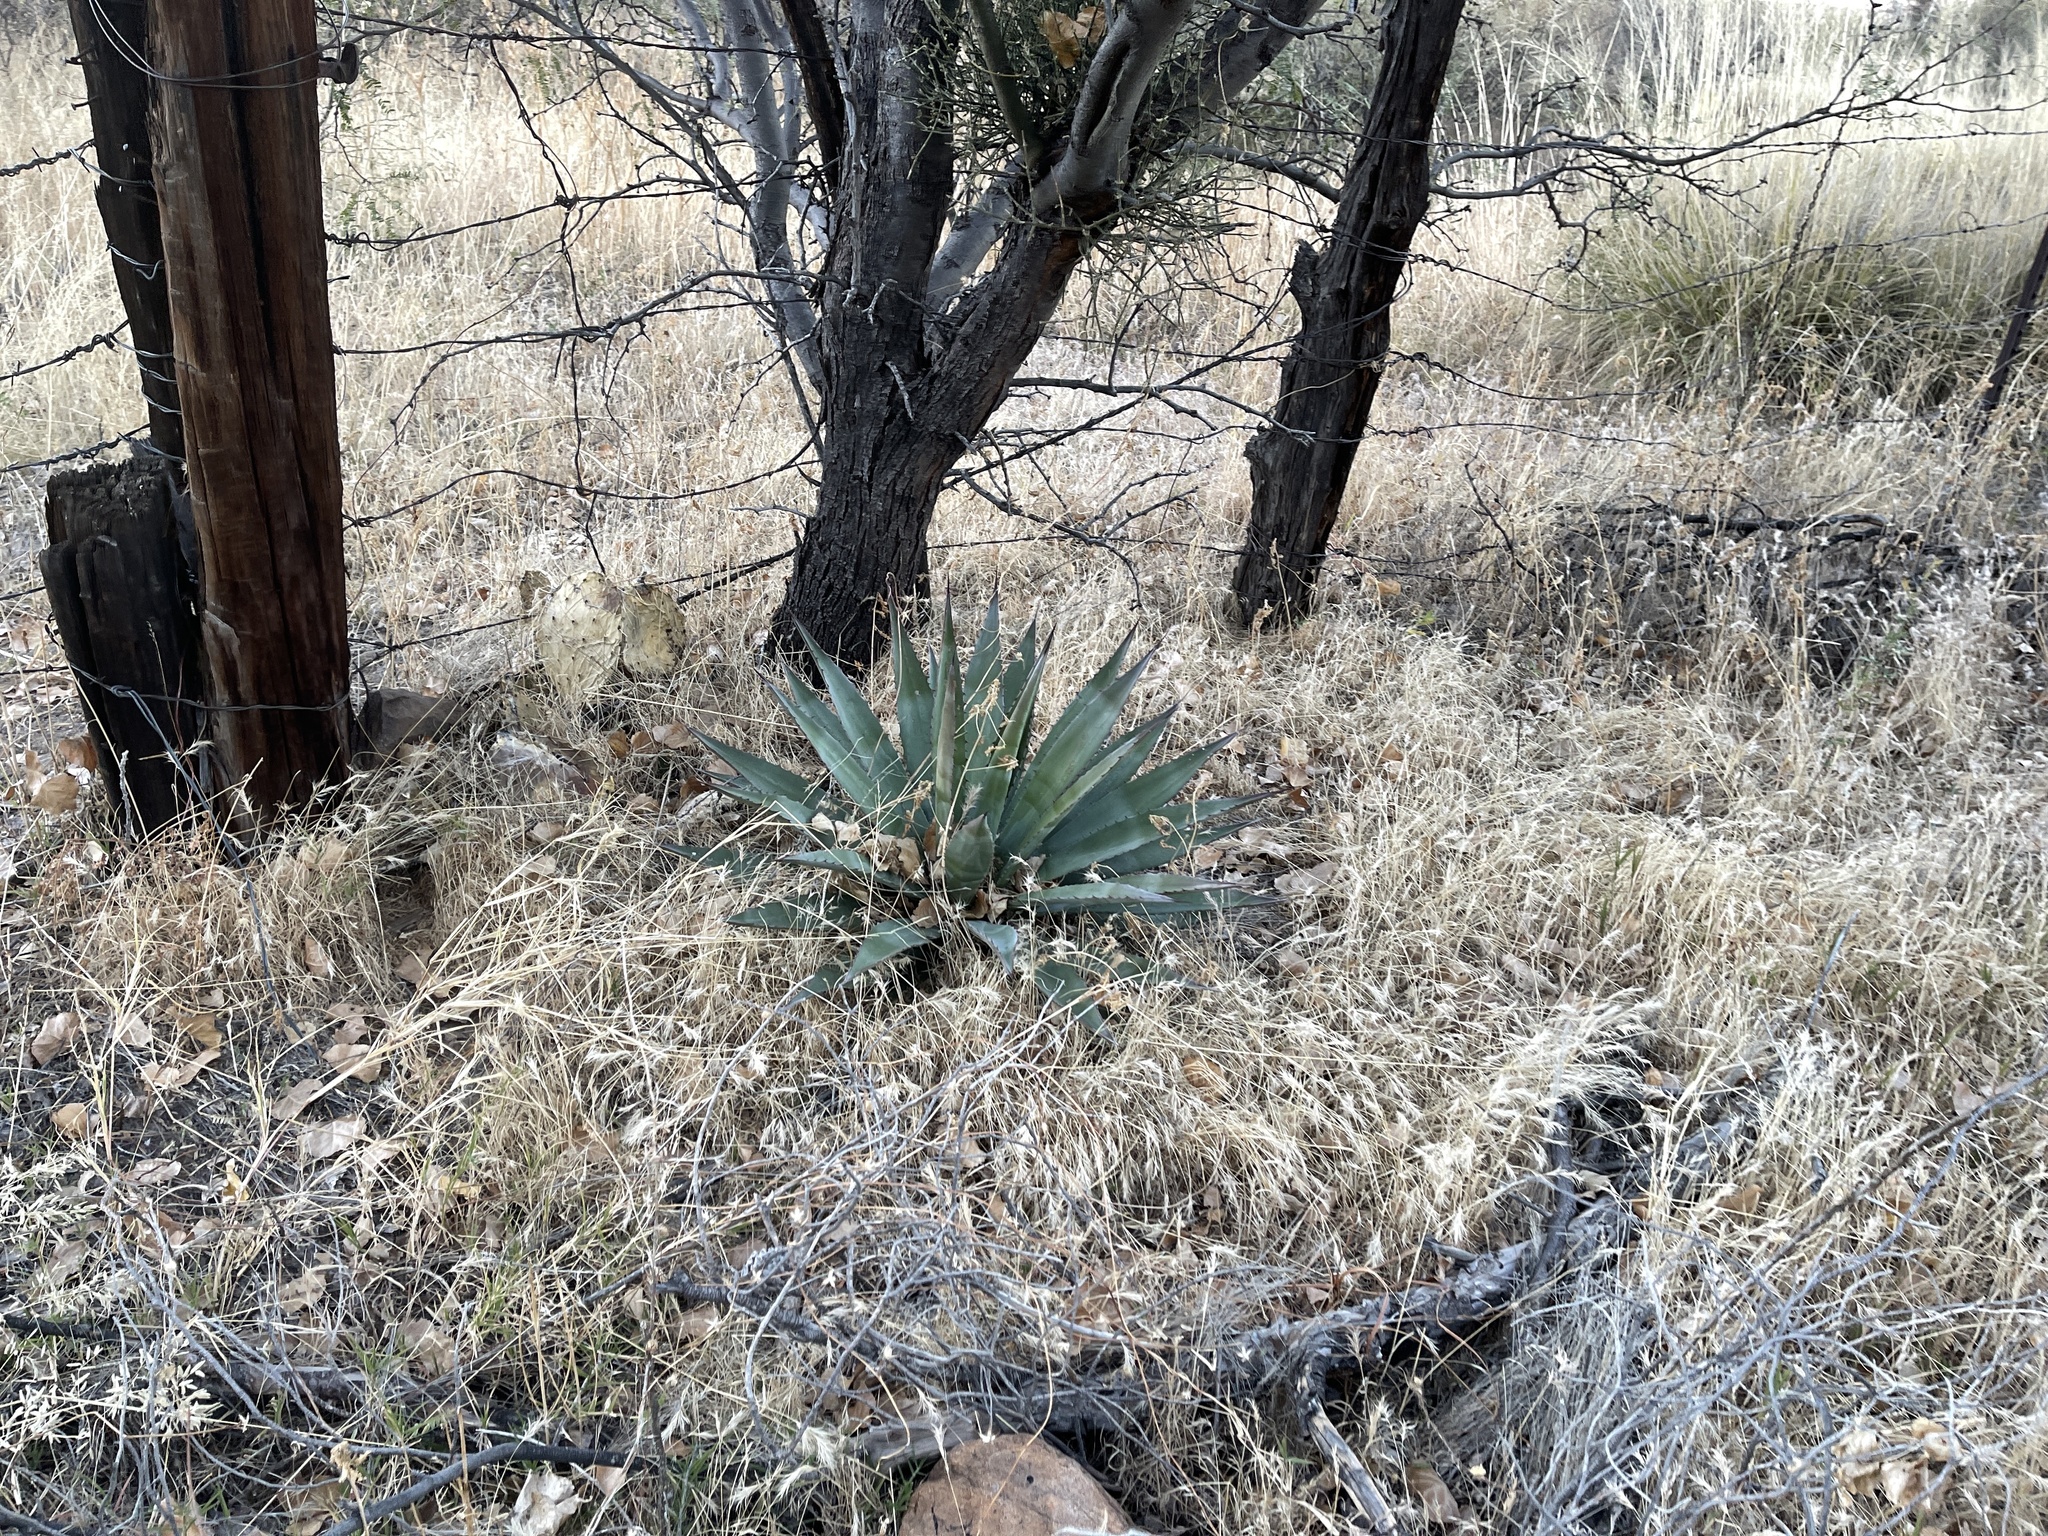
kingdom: Plantae
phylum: Tracheophyta
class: Liliopsida
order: Asparagales
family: Asparagaceae
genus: Agave
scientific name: Agave palmeri
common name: Palmer agave
